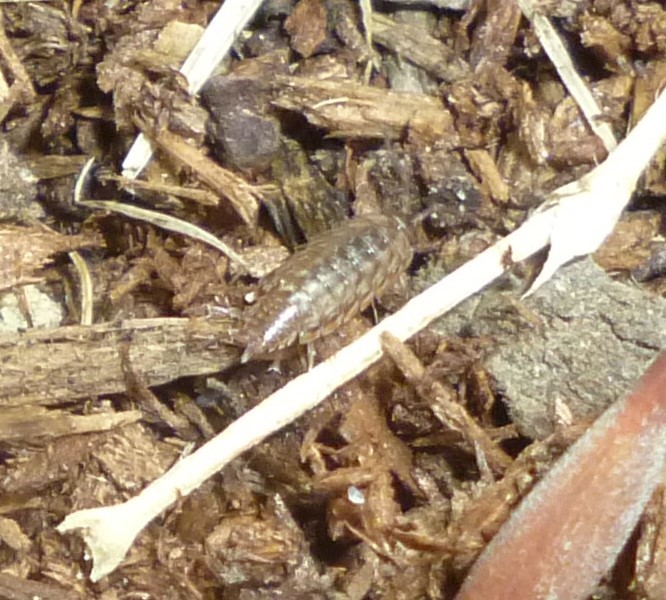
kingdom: Animalia
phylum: Arthropoda
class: Malacostraca
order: Isopoda
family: Philosciidae
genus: Philoscia
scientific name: Philoscia muscorum
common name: Common striped woodlouse
